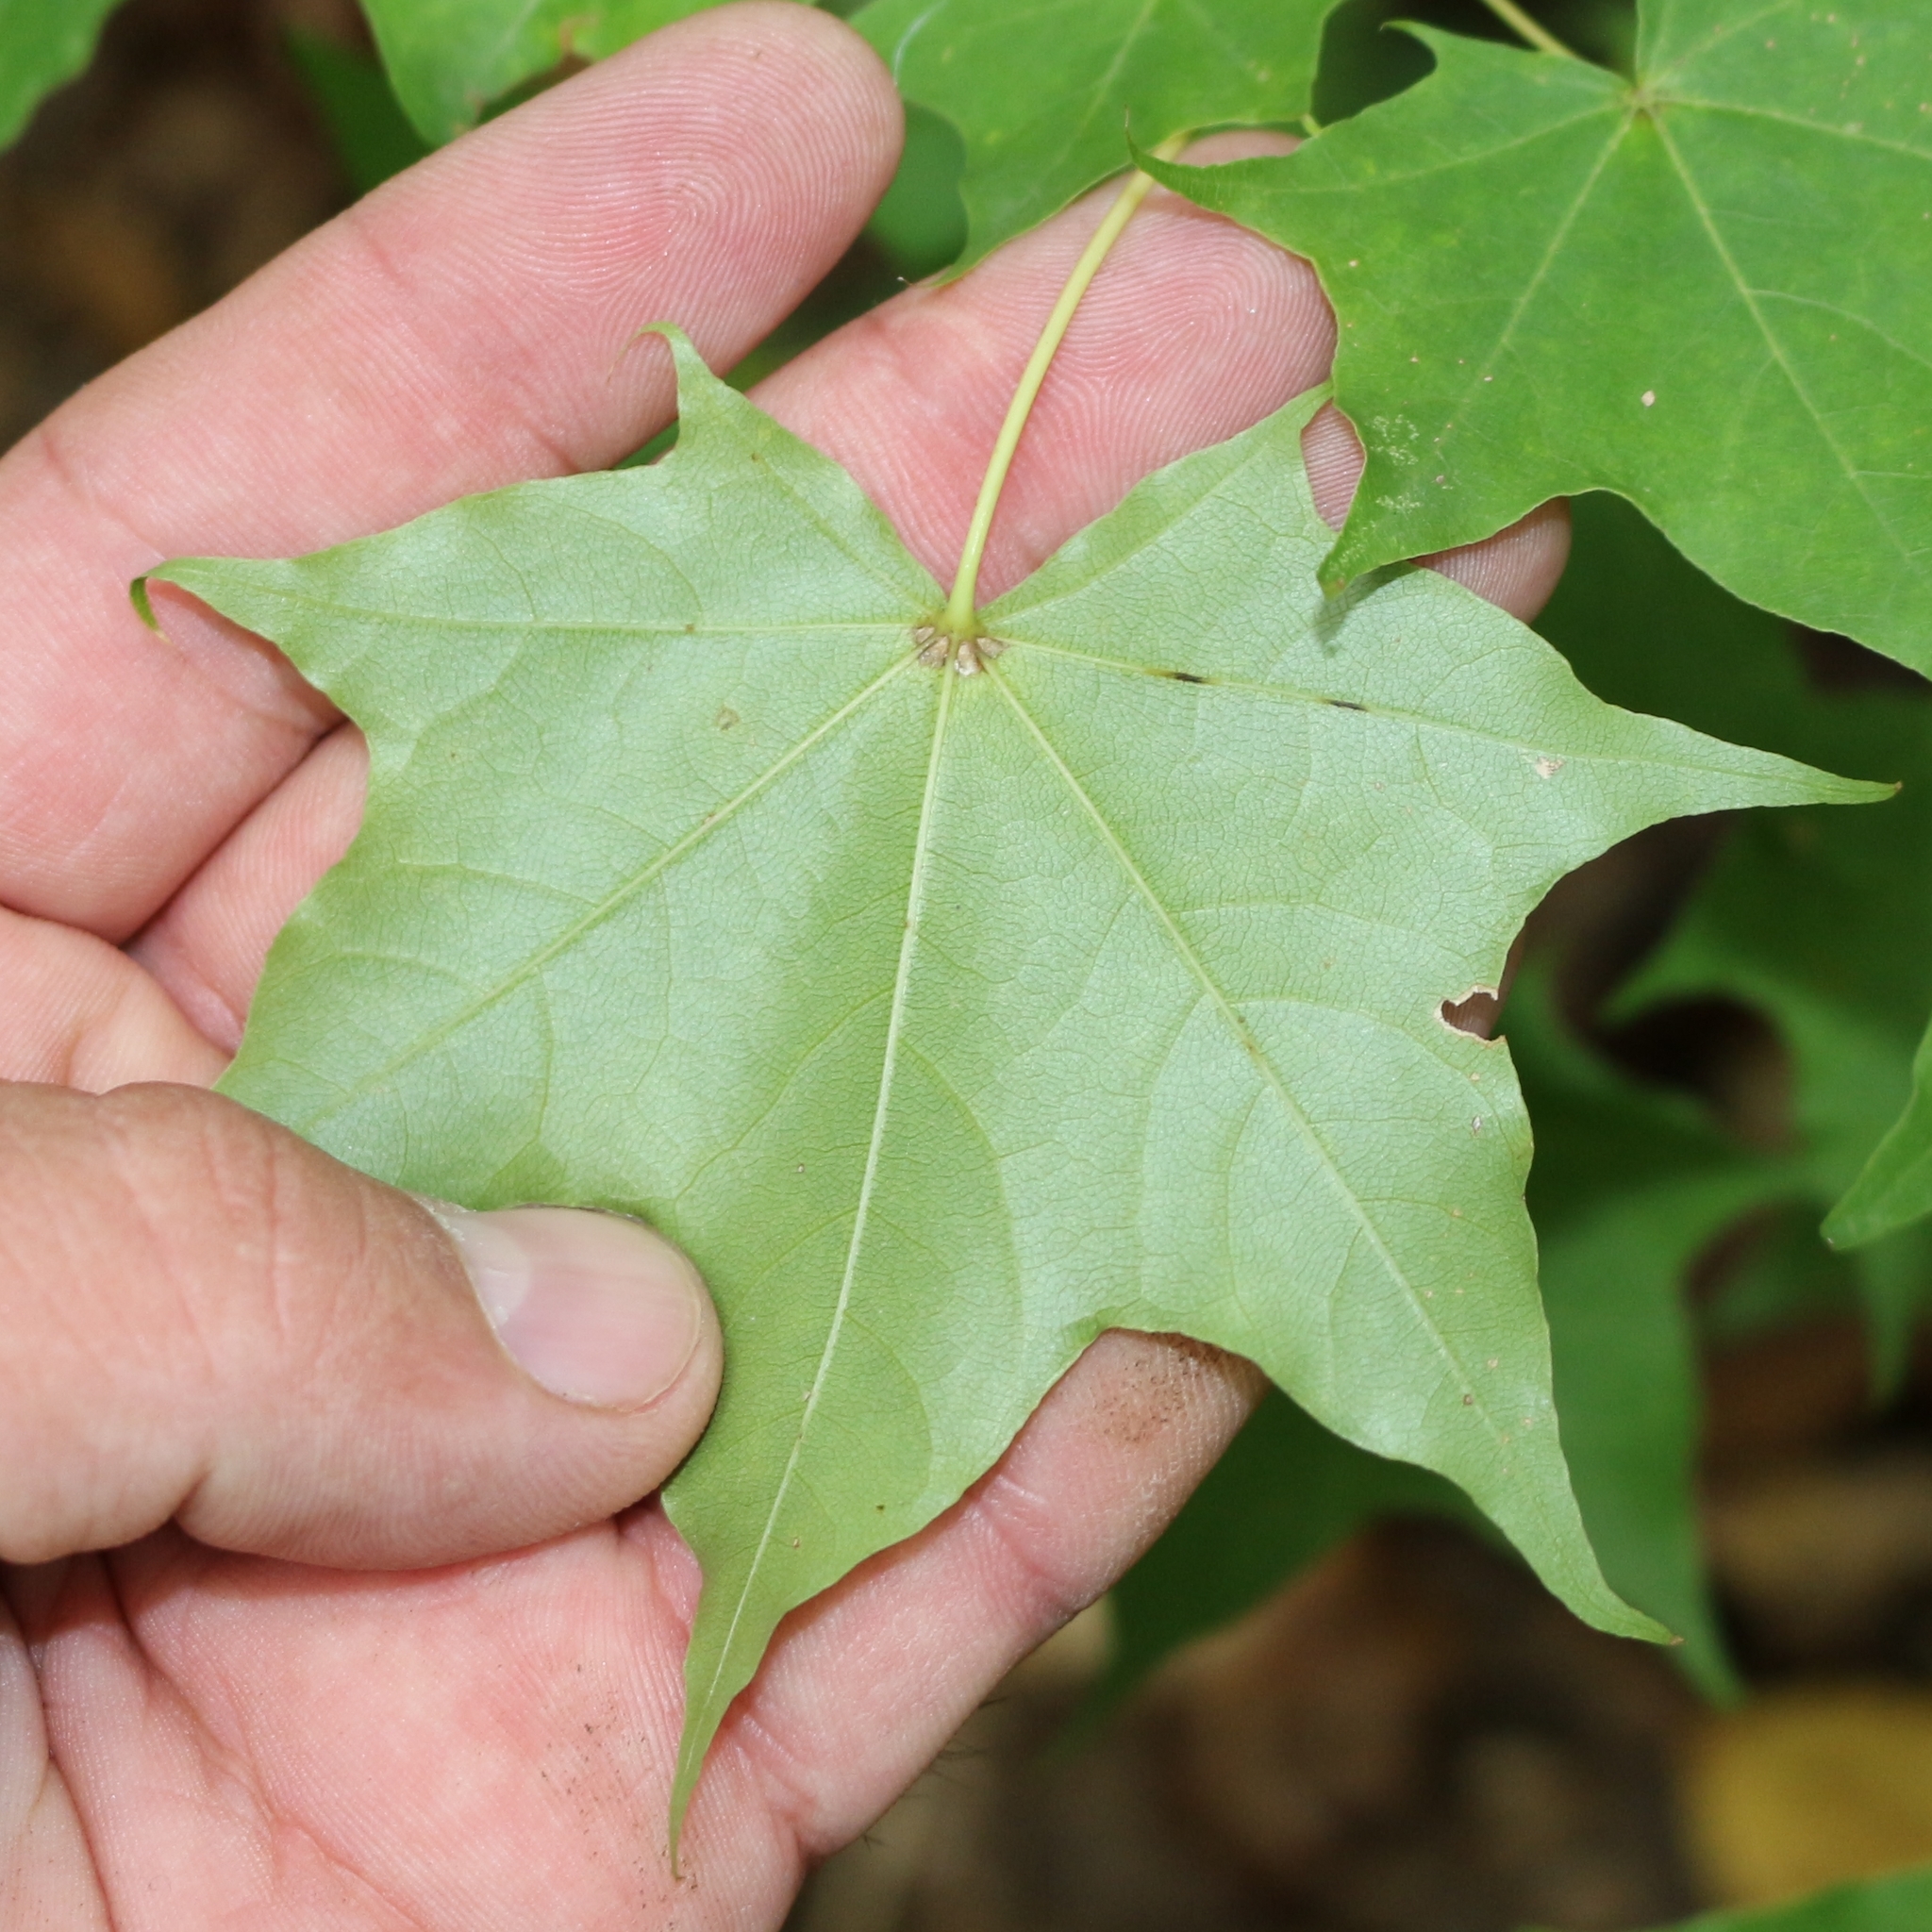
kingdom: Plantae
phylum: Tracheophyta
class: Magnoliopsida
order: Sapindales
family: Sapindaceae
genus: Acer
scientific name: Acer cappadocicum
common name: Cappadocian maple
